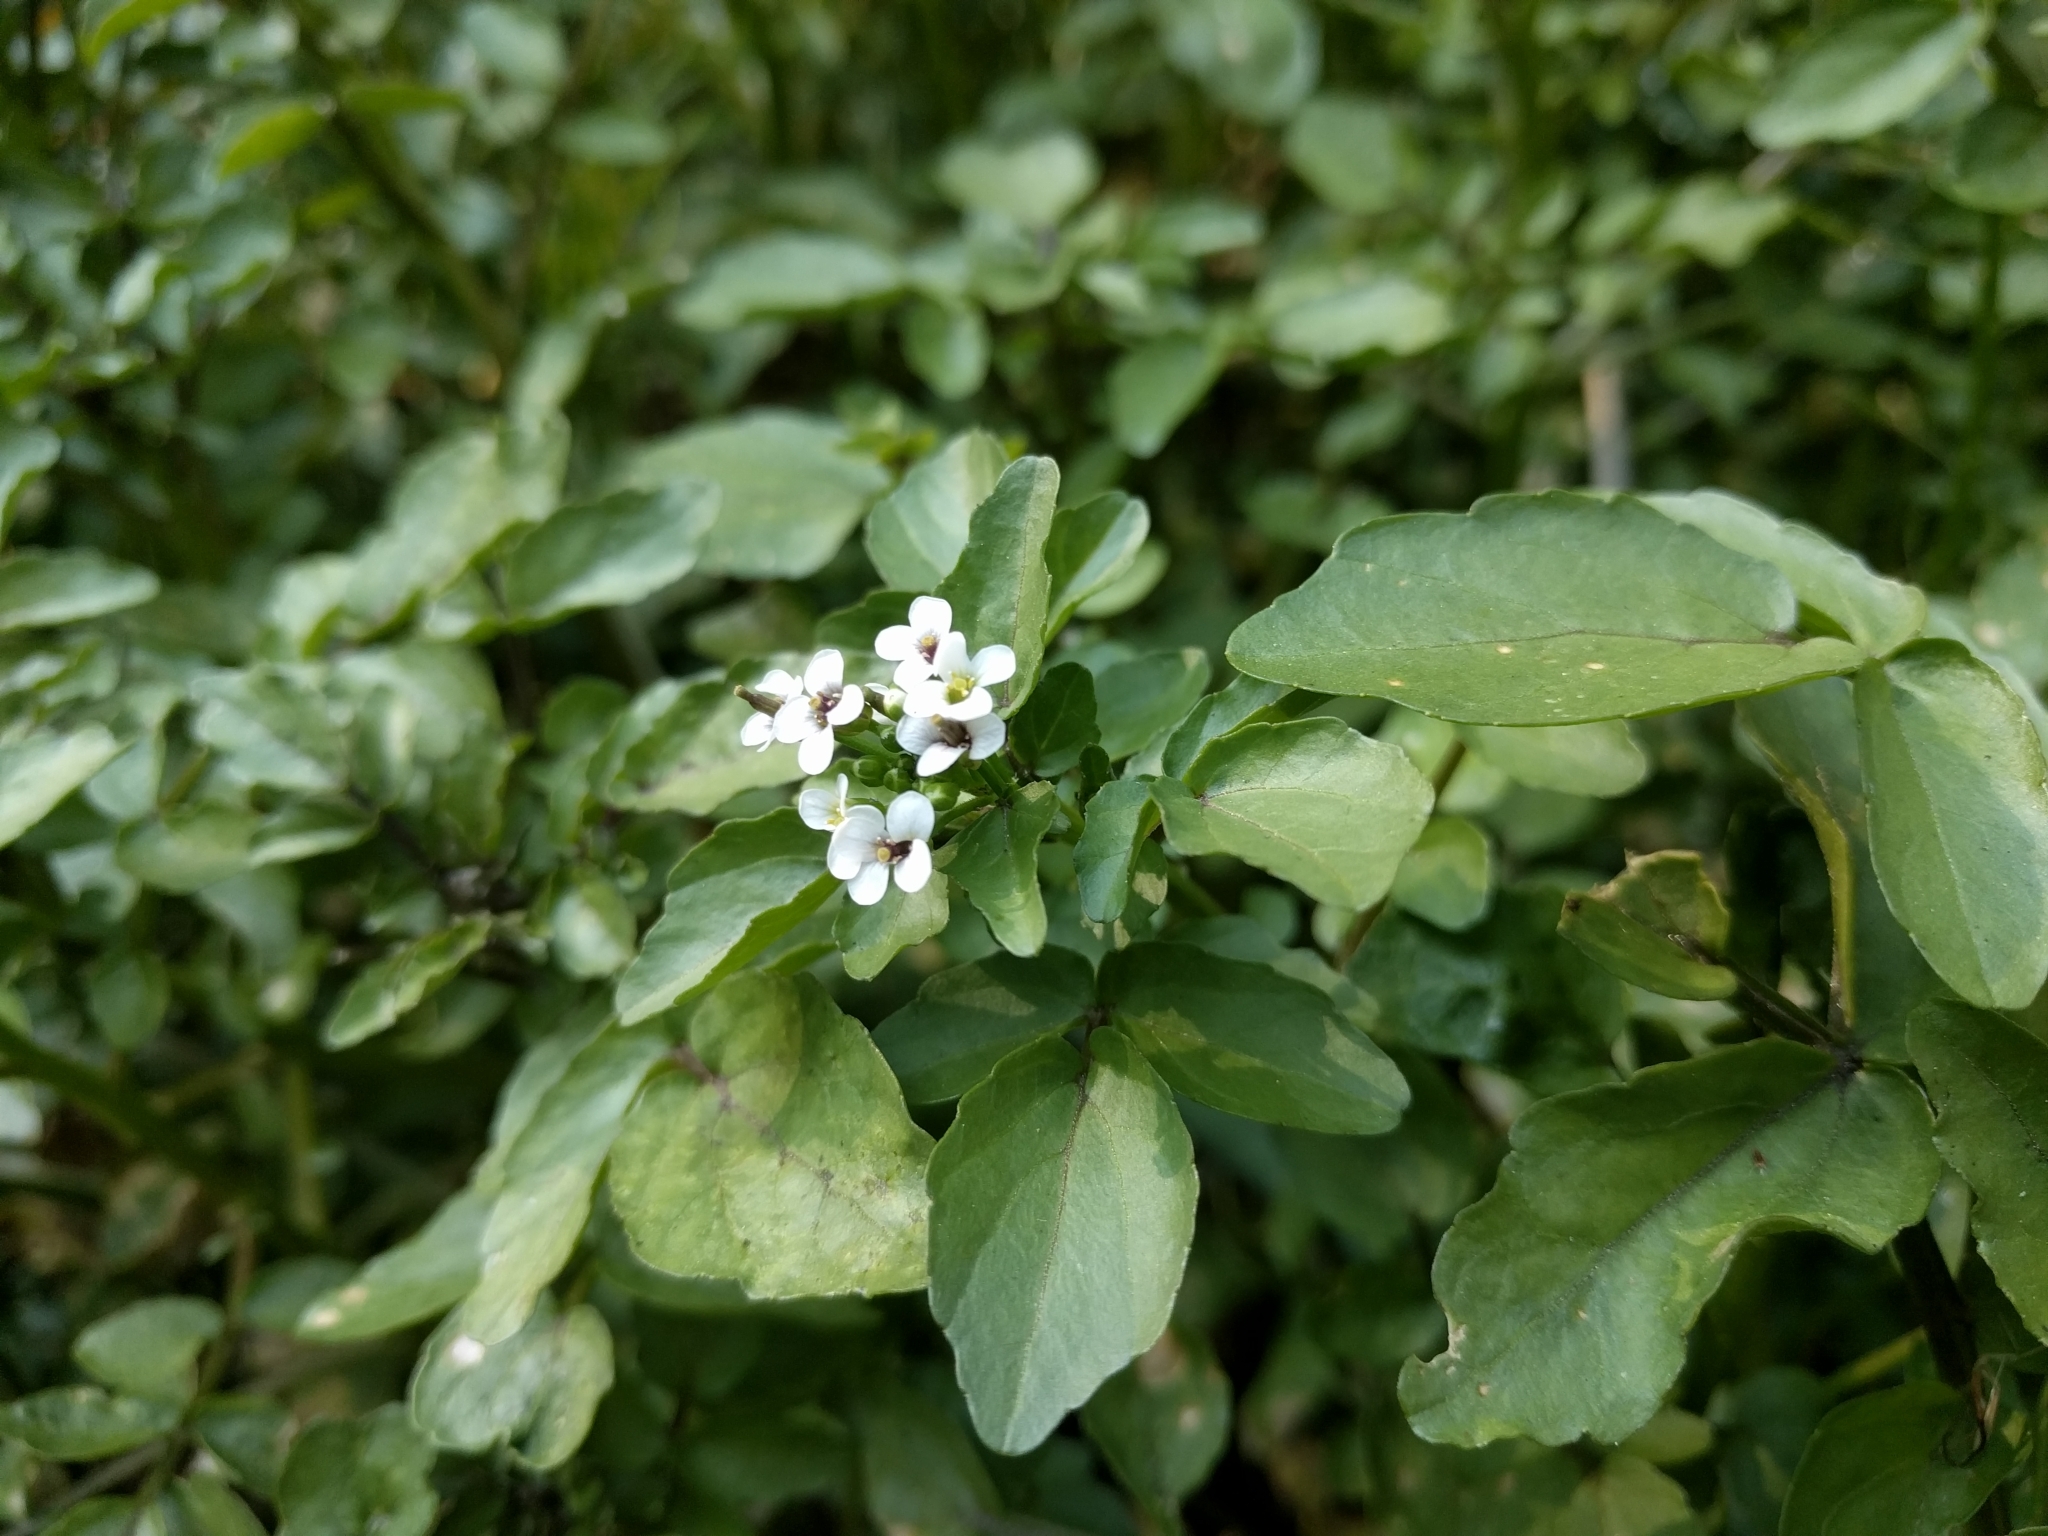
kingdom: Plantae
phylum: Tracheophyta
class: Magnoliopsida
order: Brassicales
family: Brassicaceae
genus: Nasturtium
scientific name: Nasturtium officinale
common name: Watercress
